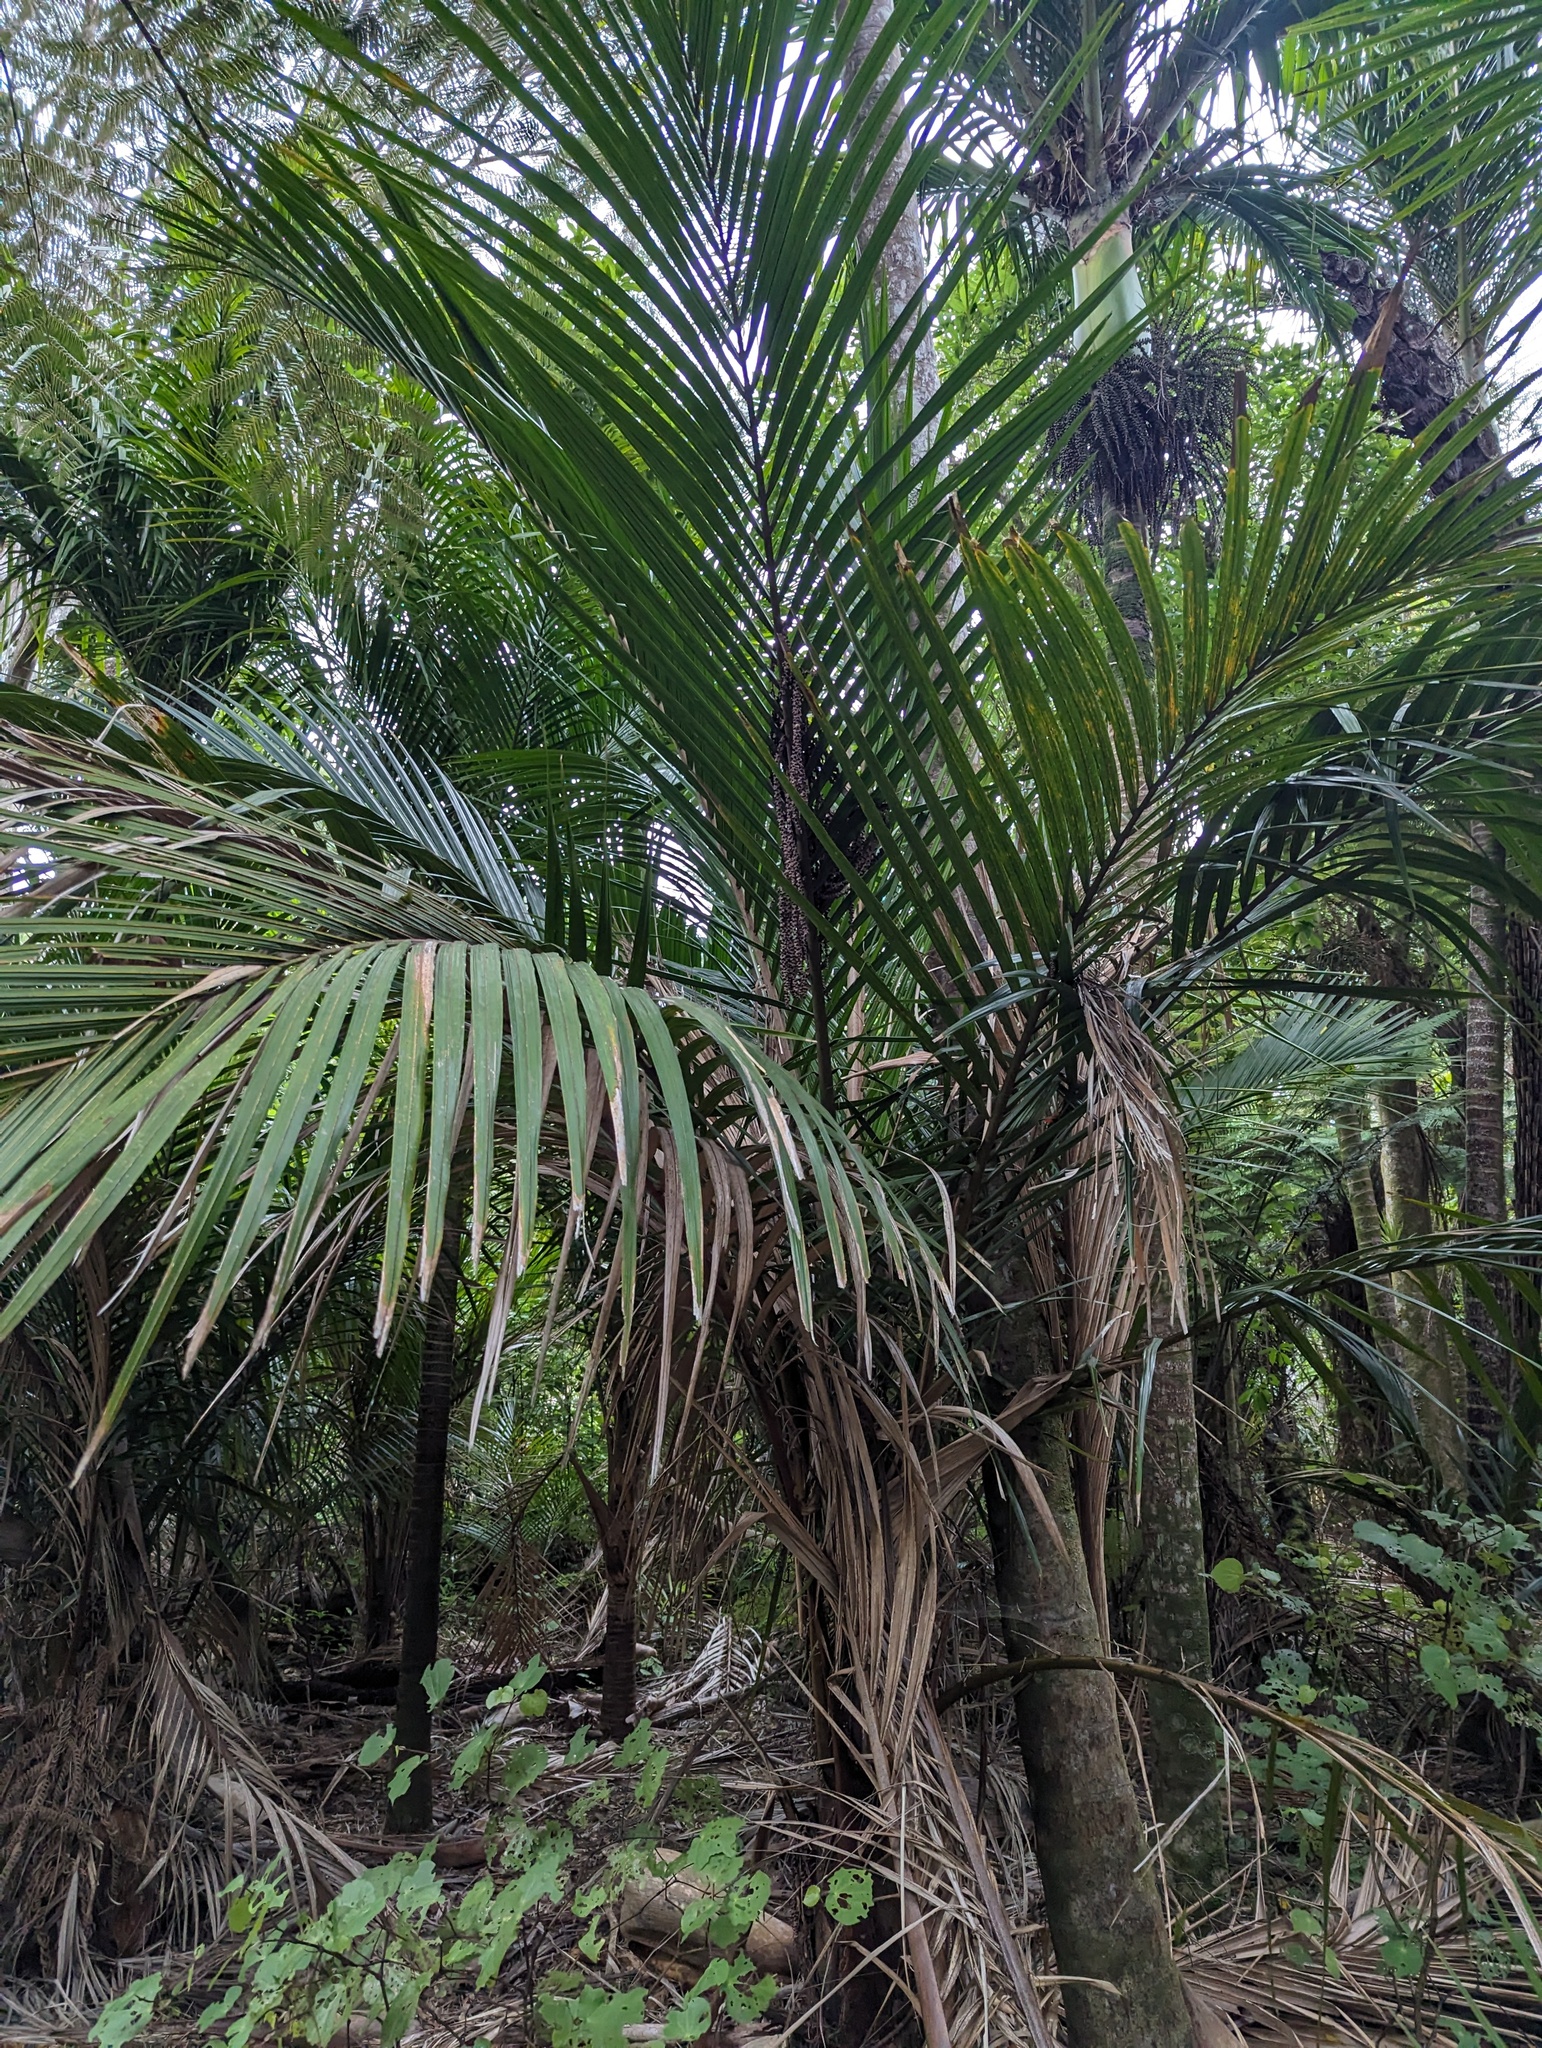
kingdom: Plantae
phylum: Tracheophyta
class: Liliopsida
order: Arecales
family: Arecaceae
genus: Rhopalostylis
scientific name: Rhopalostylis sapida
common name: Feather-duster palm
